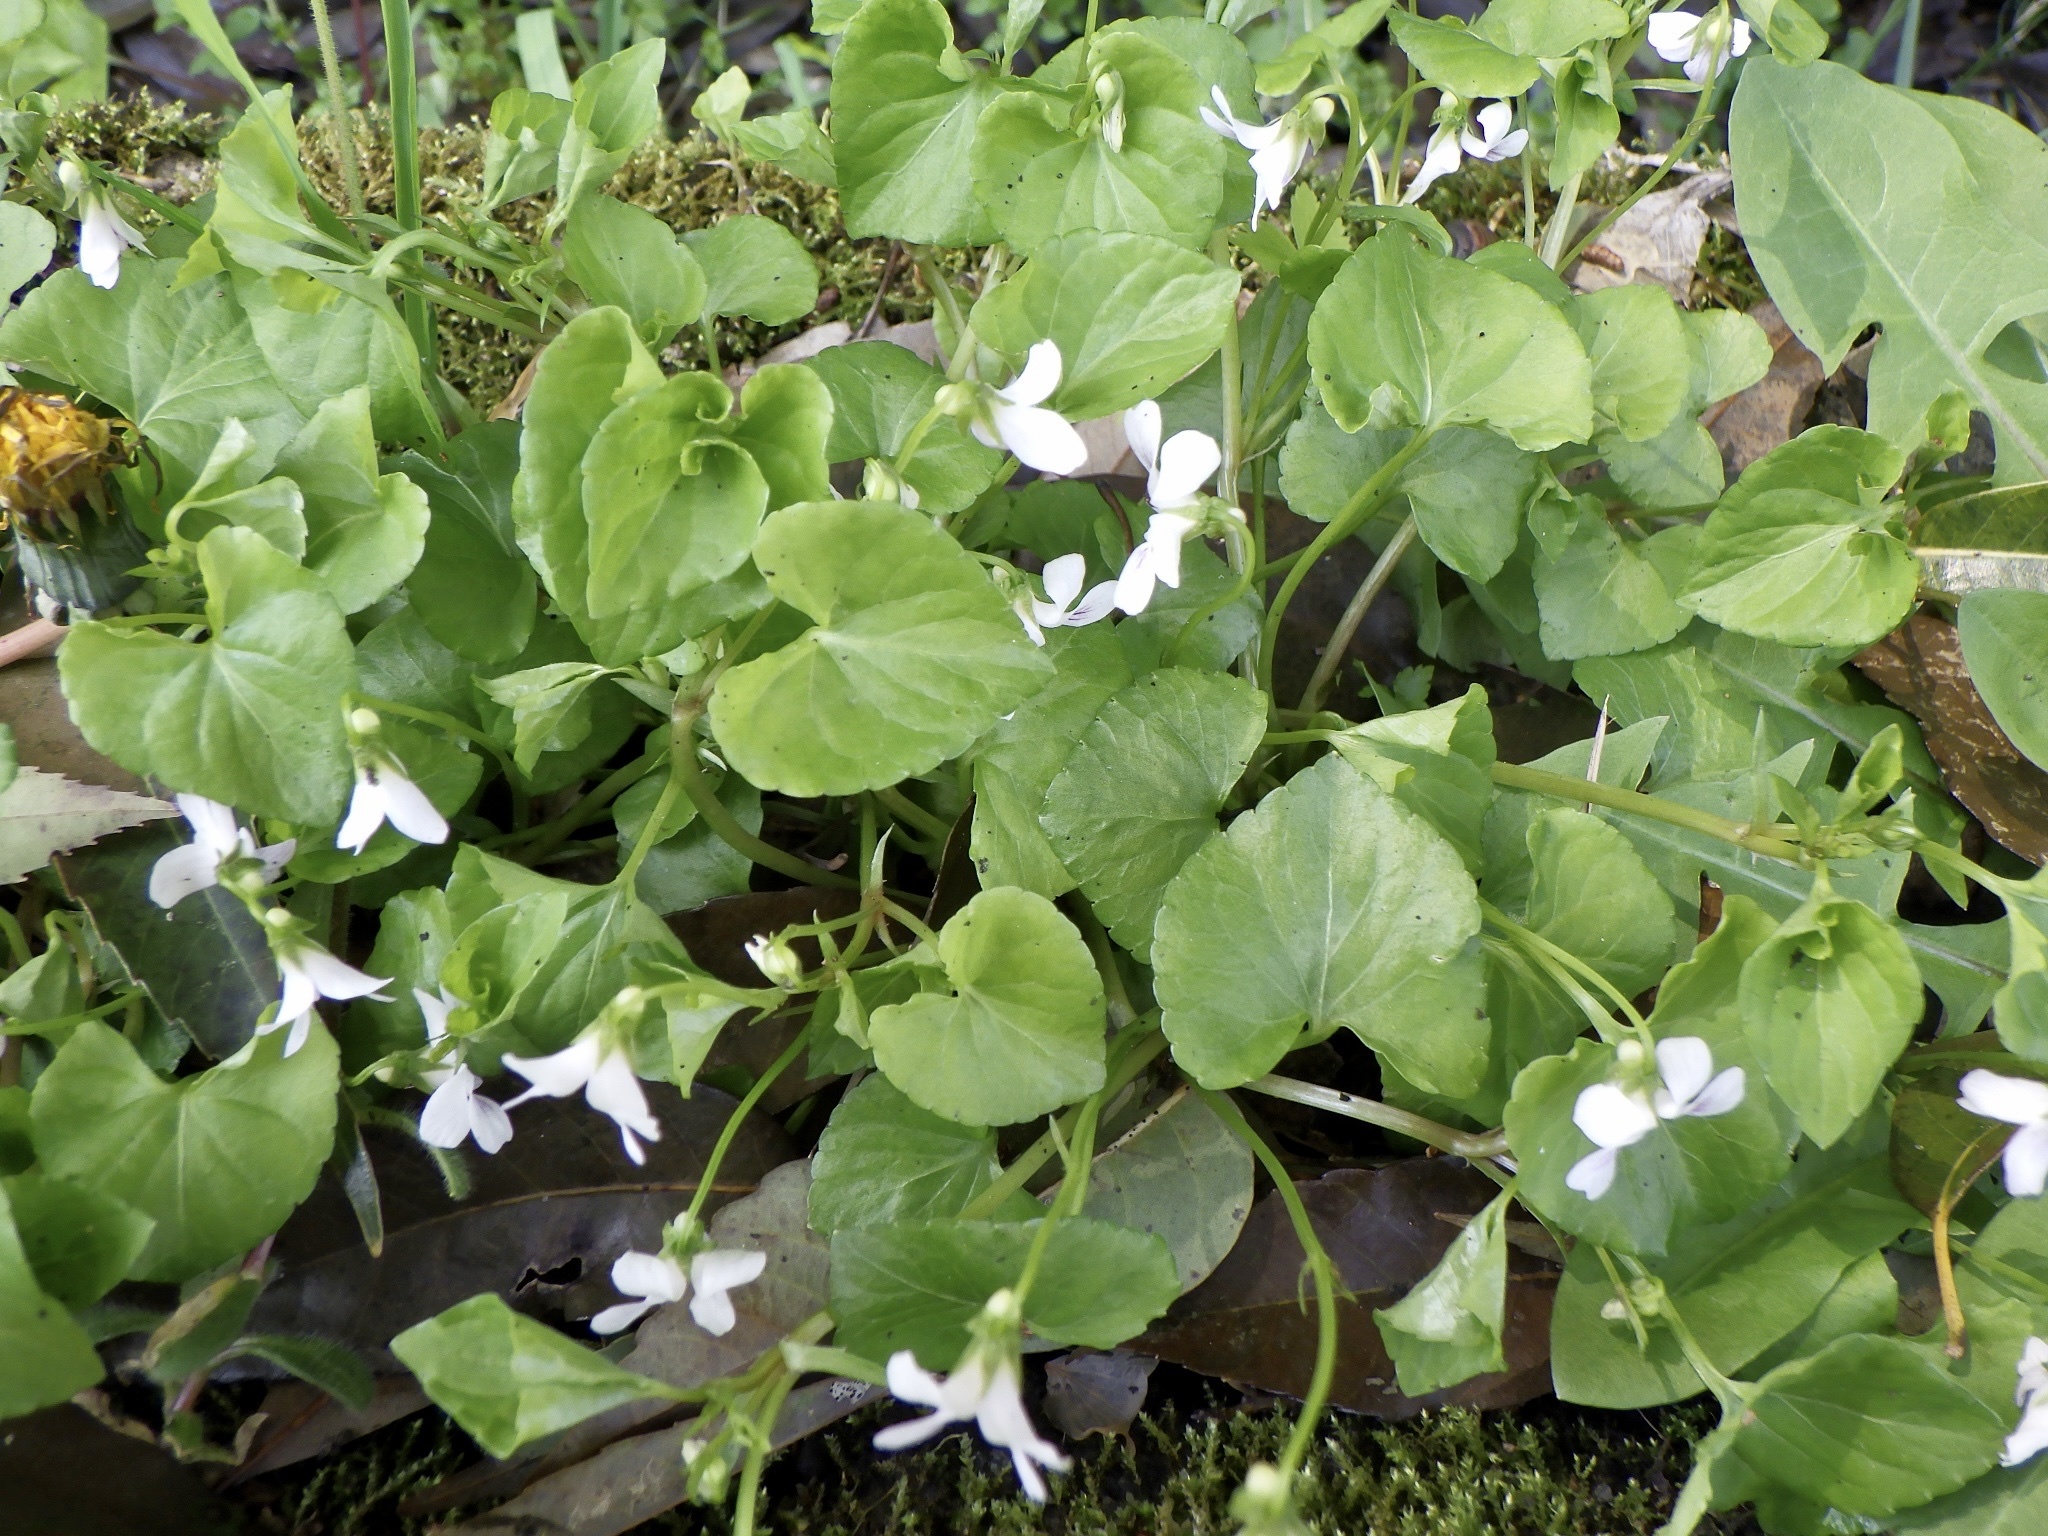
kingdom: Plantae
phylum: Tracheophyta
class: Magnoliopsida
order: Malpighiales
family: Violaceae
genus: Viola
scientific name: Viola
